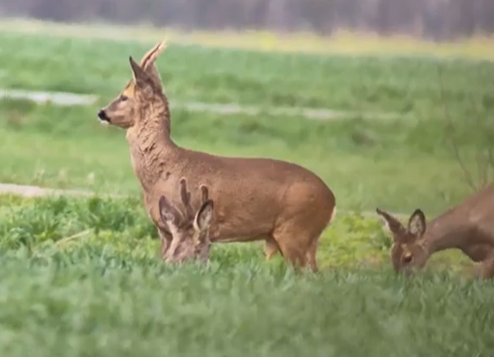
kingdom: Animalia
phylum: Chordata
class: Mammalia
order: Artiodactyla
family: Cervidae
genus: Capreolus
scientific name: Capreolus capreolus
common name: Western roe deer
